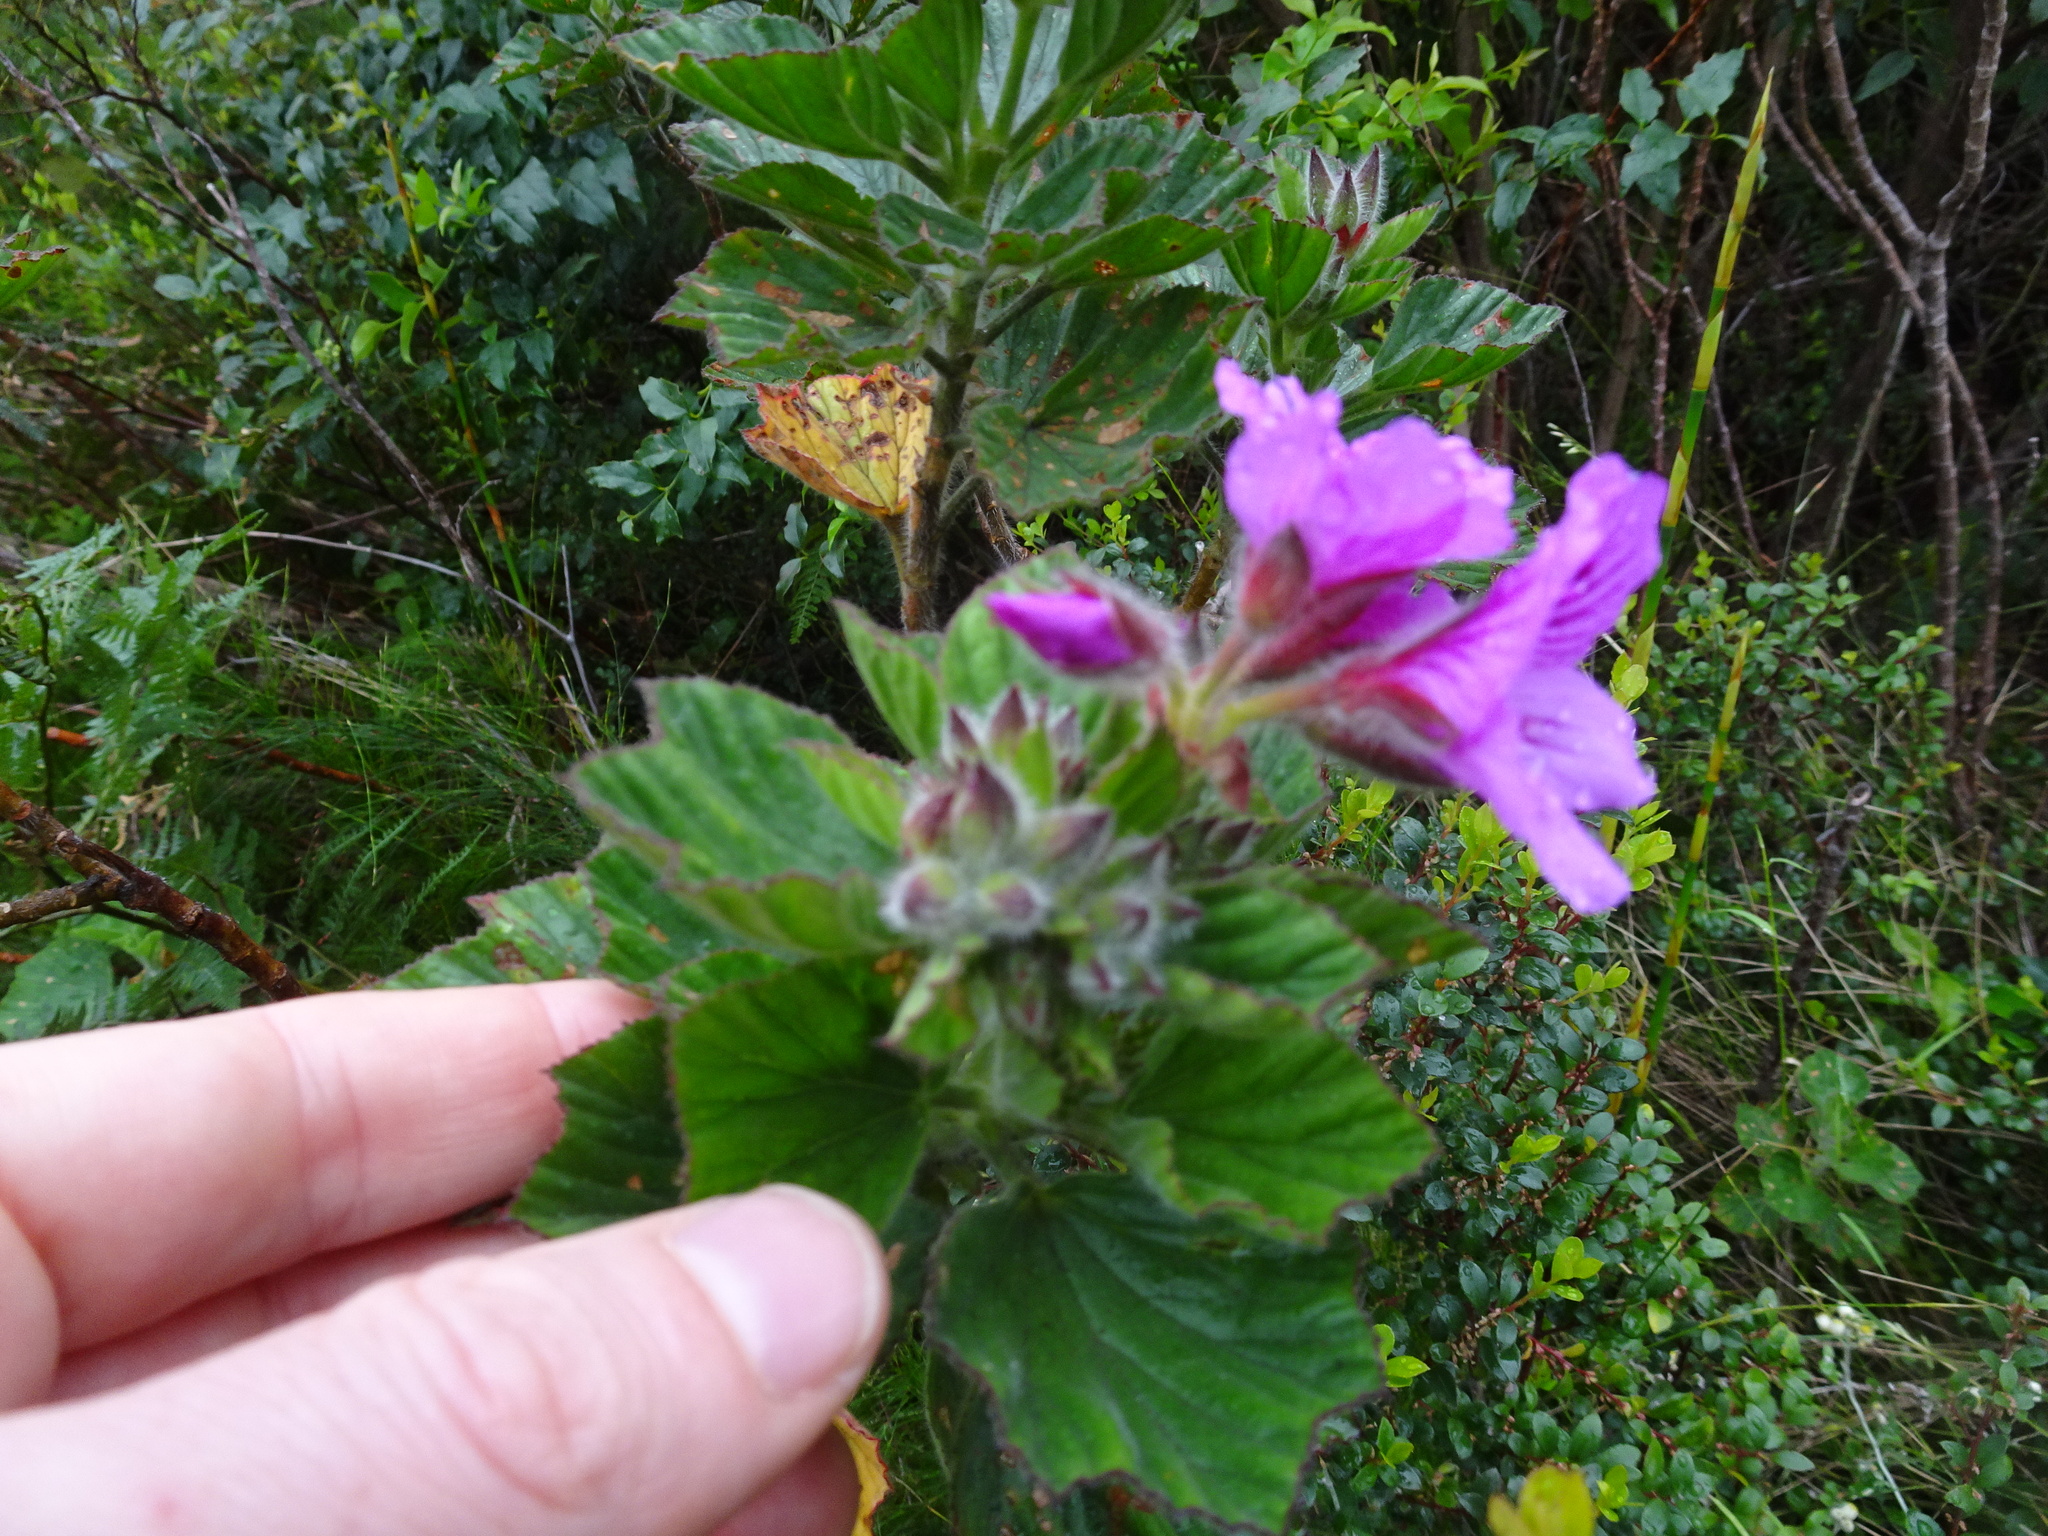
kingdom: Plantae
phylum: Tracheophyta
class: Magnoliopsida
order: Geraniales
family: Geraniaceae
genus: Pelargonium
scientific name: Pelargonium cucullatum
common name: Tree pelargonium
